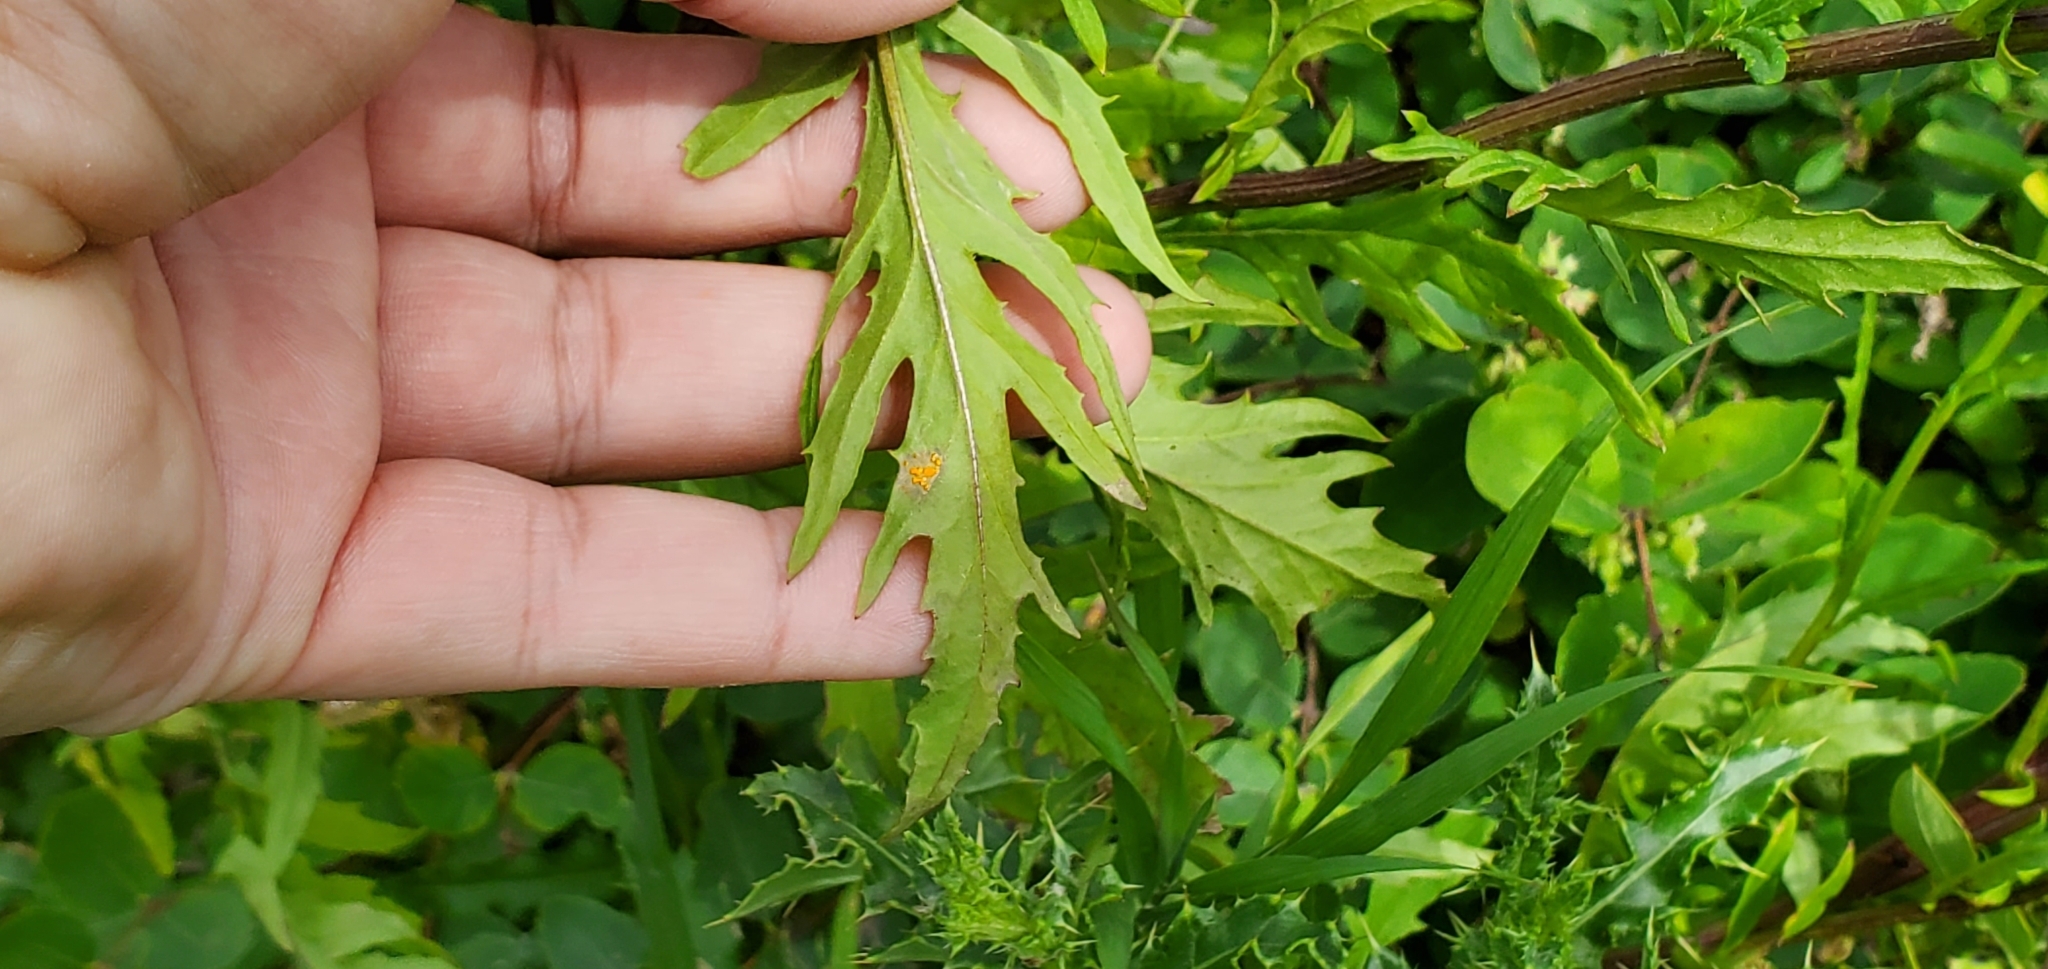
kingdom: Plantae
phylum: Tracheophyta
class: Magnoliopsida
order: Asterales
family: Asteraceae
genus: Senecio
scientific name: Senecio eremophilus
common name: Desert ragwort
